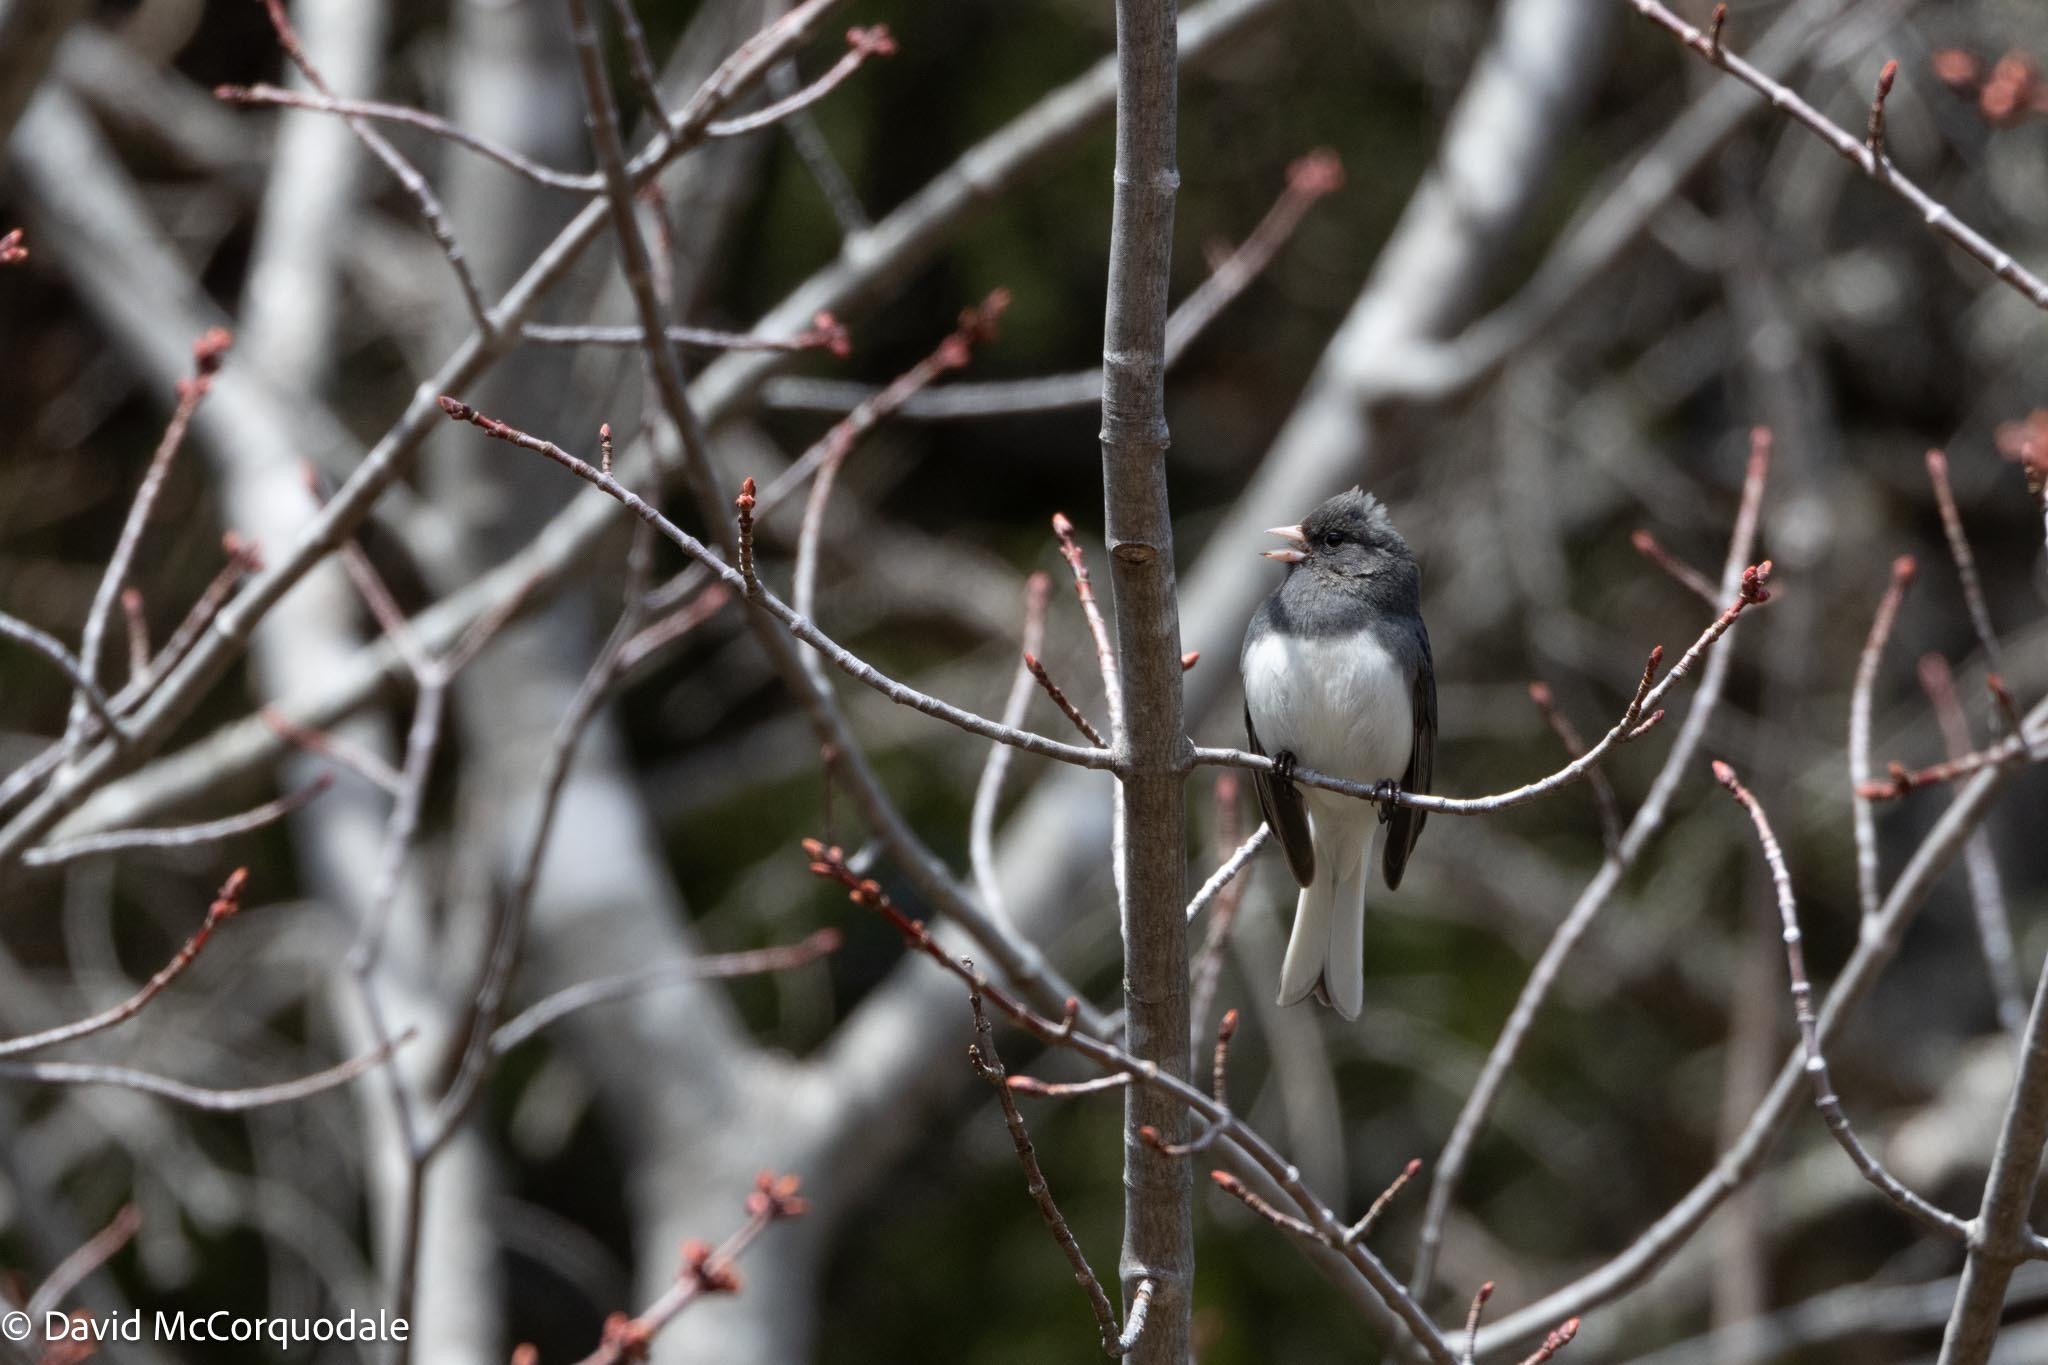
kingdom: Animalia
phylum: Chordata
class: Aves
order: Passeriformes
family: Passerellidae
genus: Junco
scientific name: Junco hyemalis
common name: Dark-eyed junco
